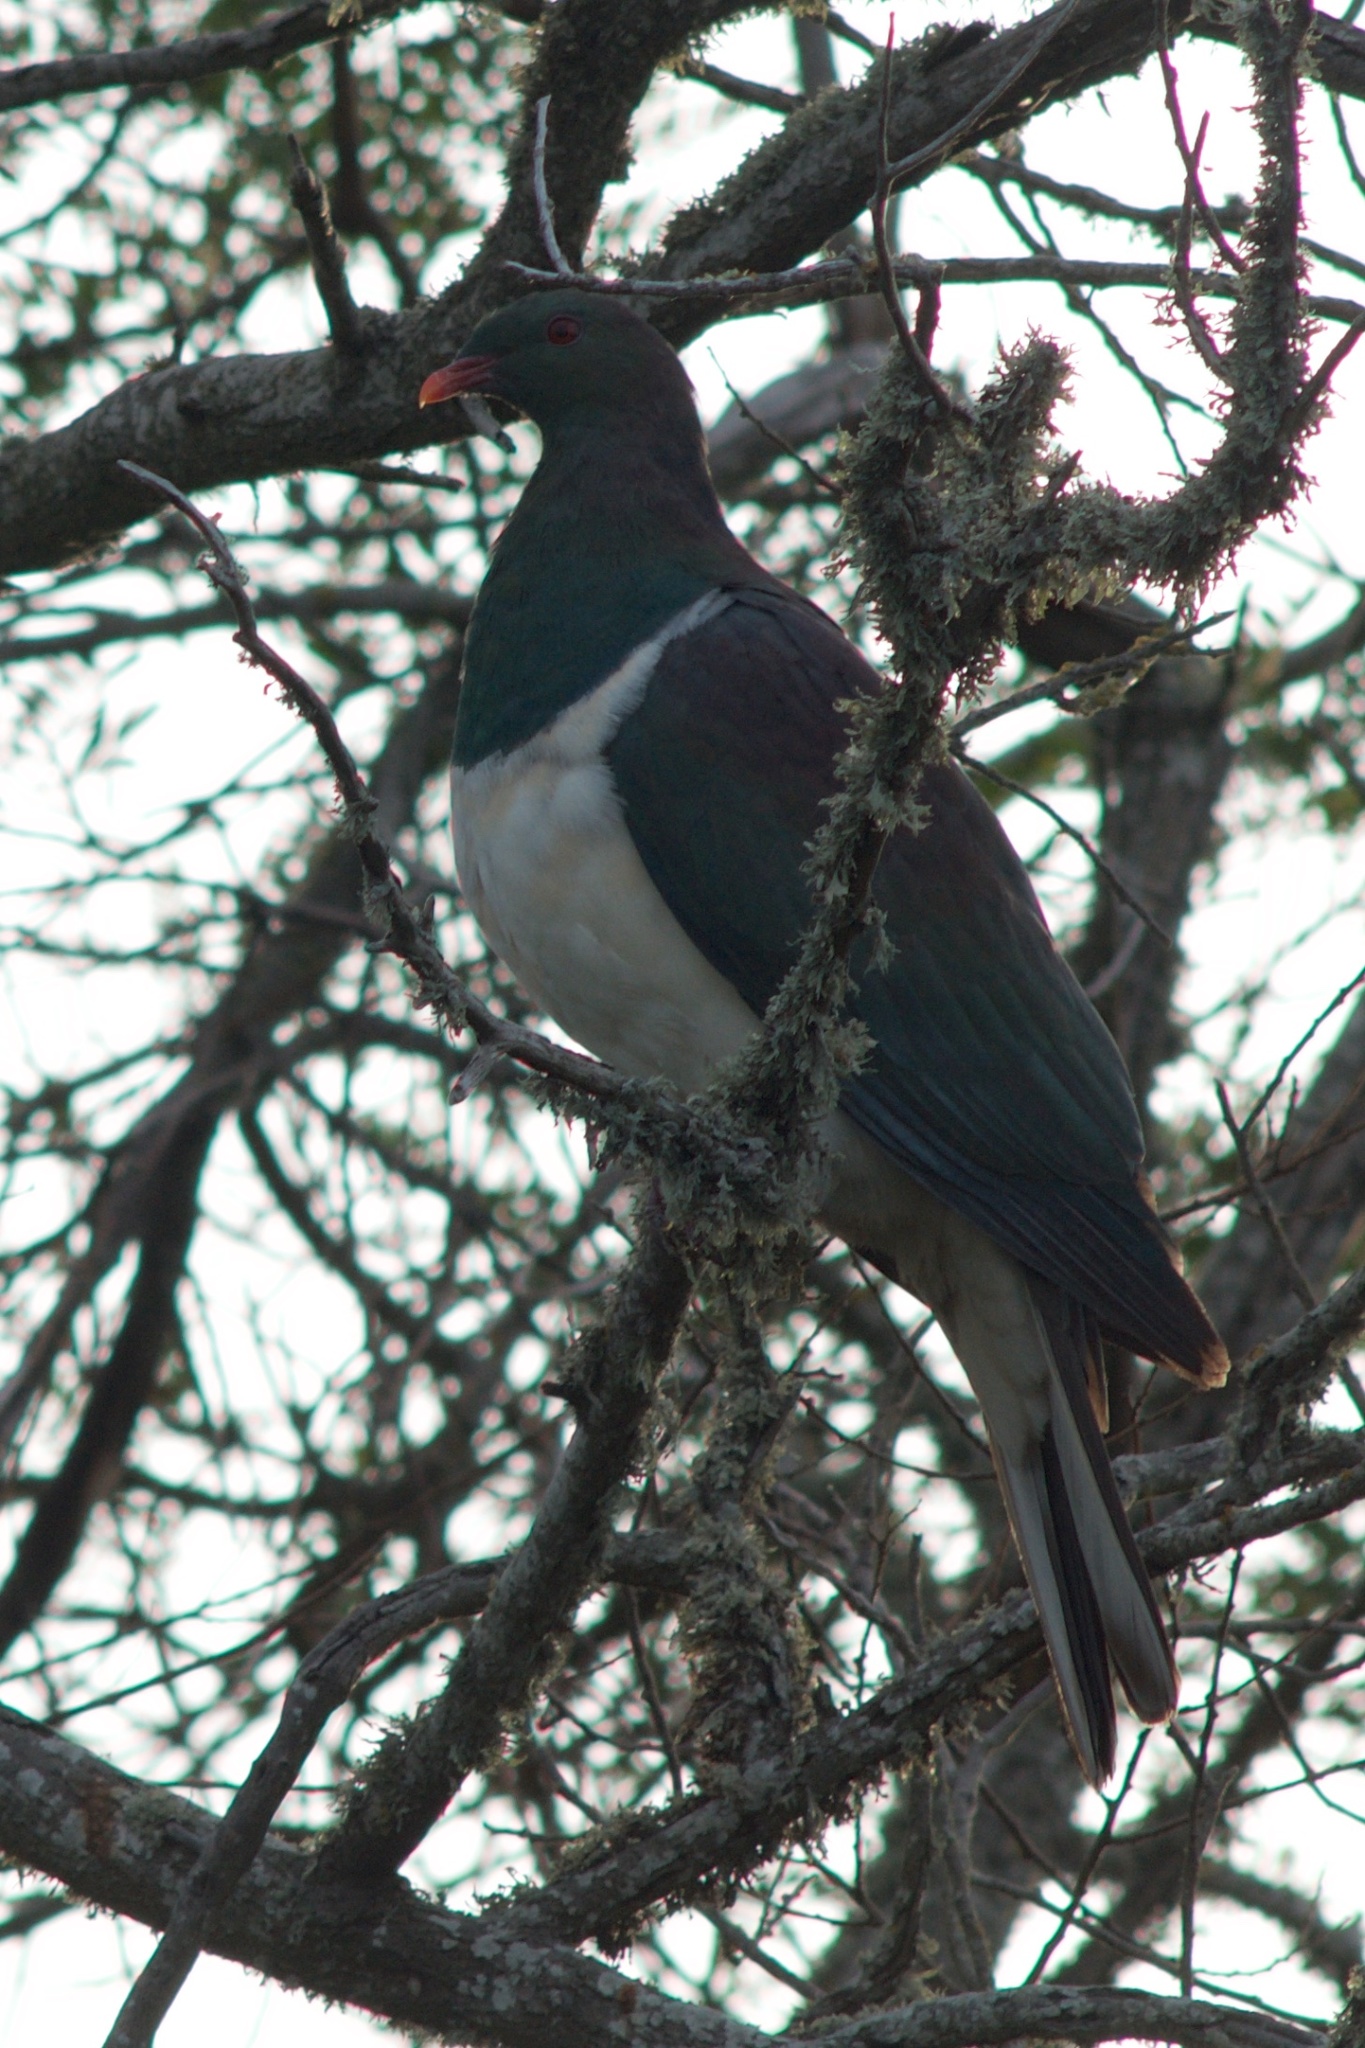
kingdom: Animalia
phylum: Chordata
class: Aves
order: Columbiformes
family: Columbidae
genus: Hemiphaga
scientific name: Hemiphaga novaeseelandiae
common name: New zealand pigeon
